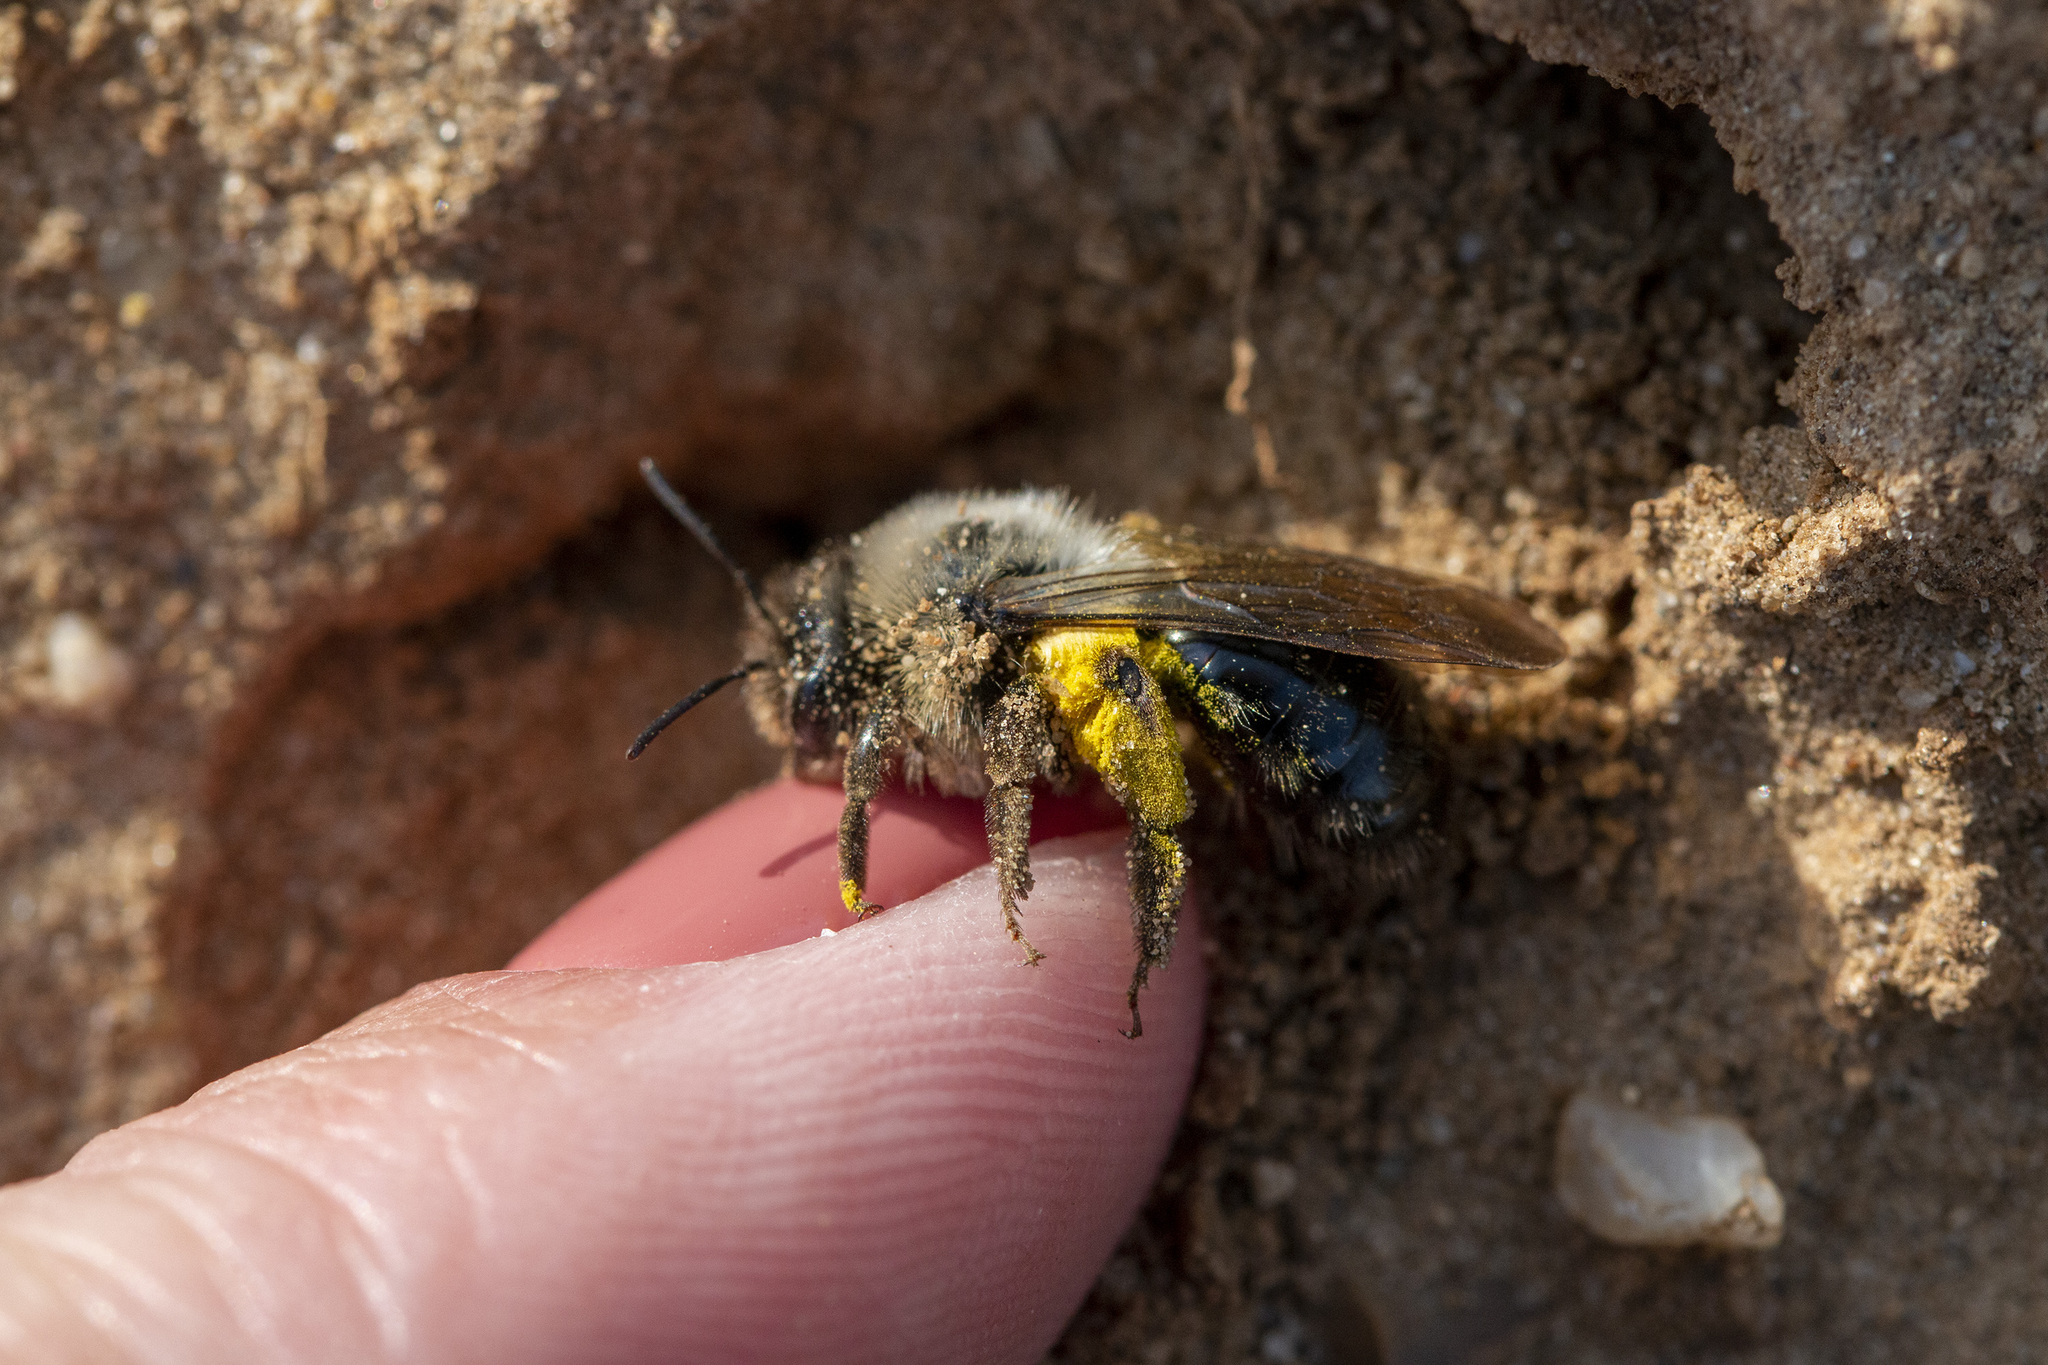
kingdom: Animalia
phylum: Arthropoda
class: Insecta
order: Hymenoptera
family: Andrenidae
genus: Andrena
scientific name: Andrena vaga
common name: Grey-backed mining bee
